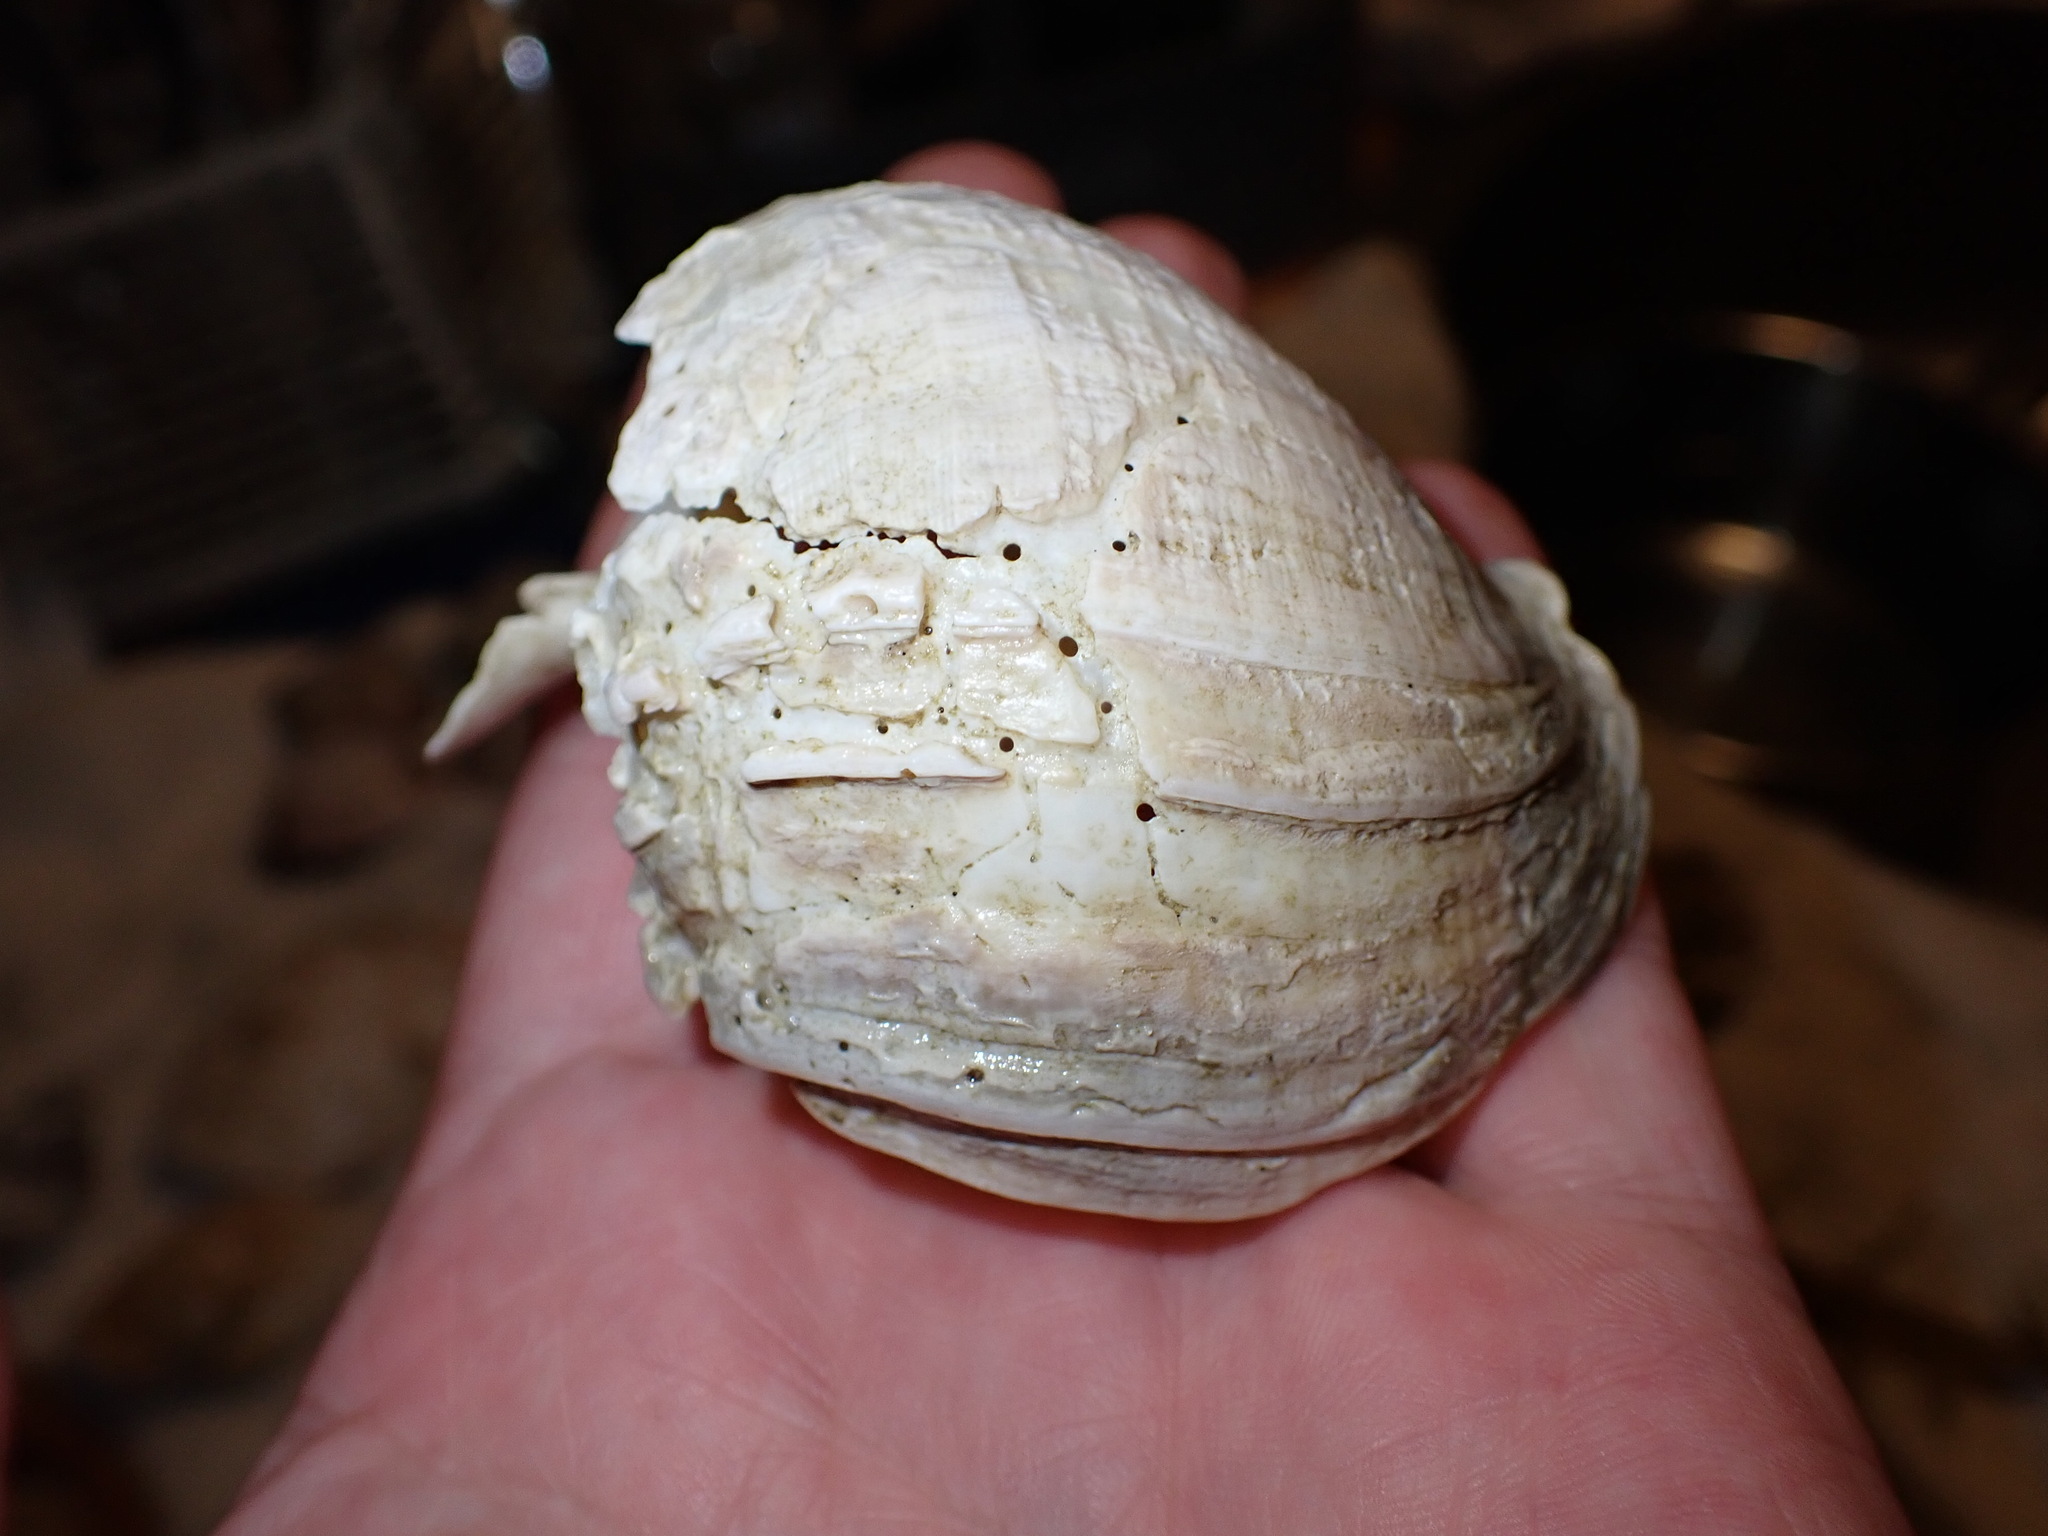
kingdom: Animalia
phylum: Mollusca
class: Gastropoda
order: Neogastropoda
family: Buccinidae
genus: Buccinum
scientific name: Buccinum undatum
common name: Common whelk
